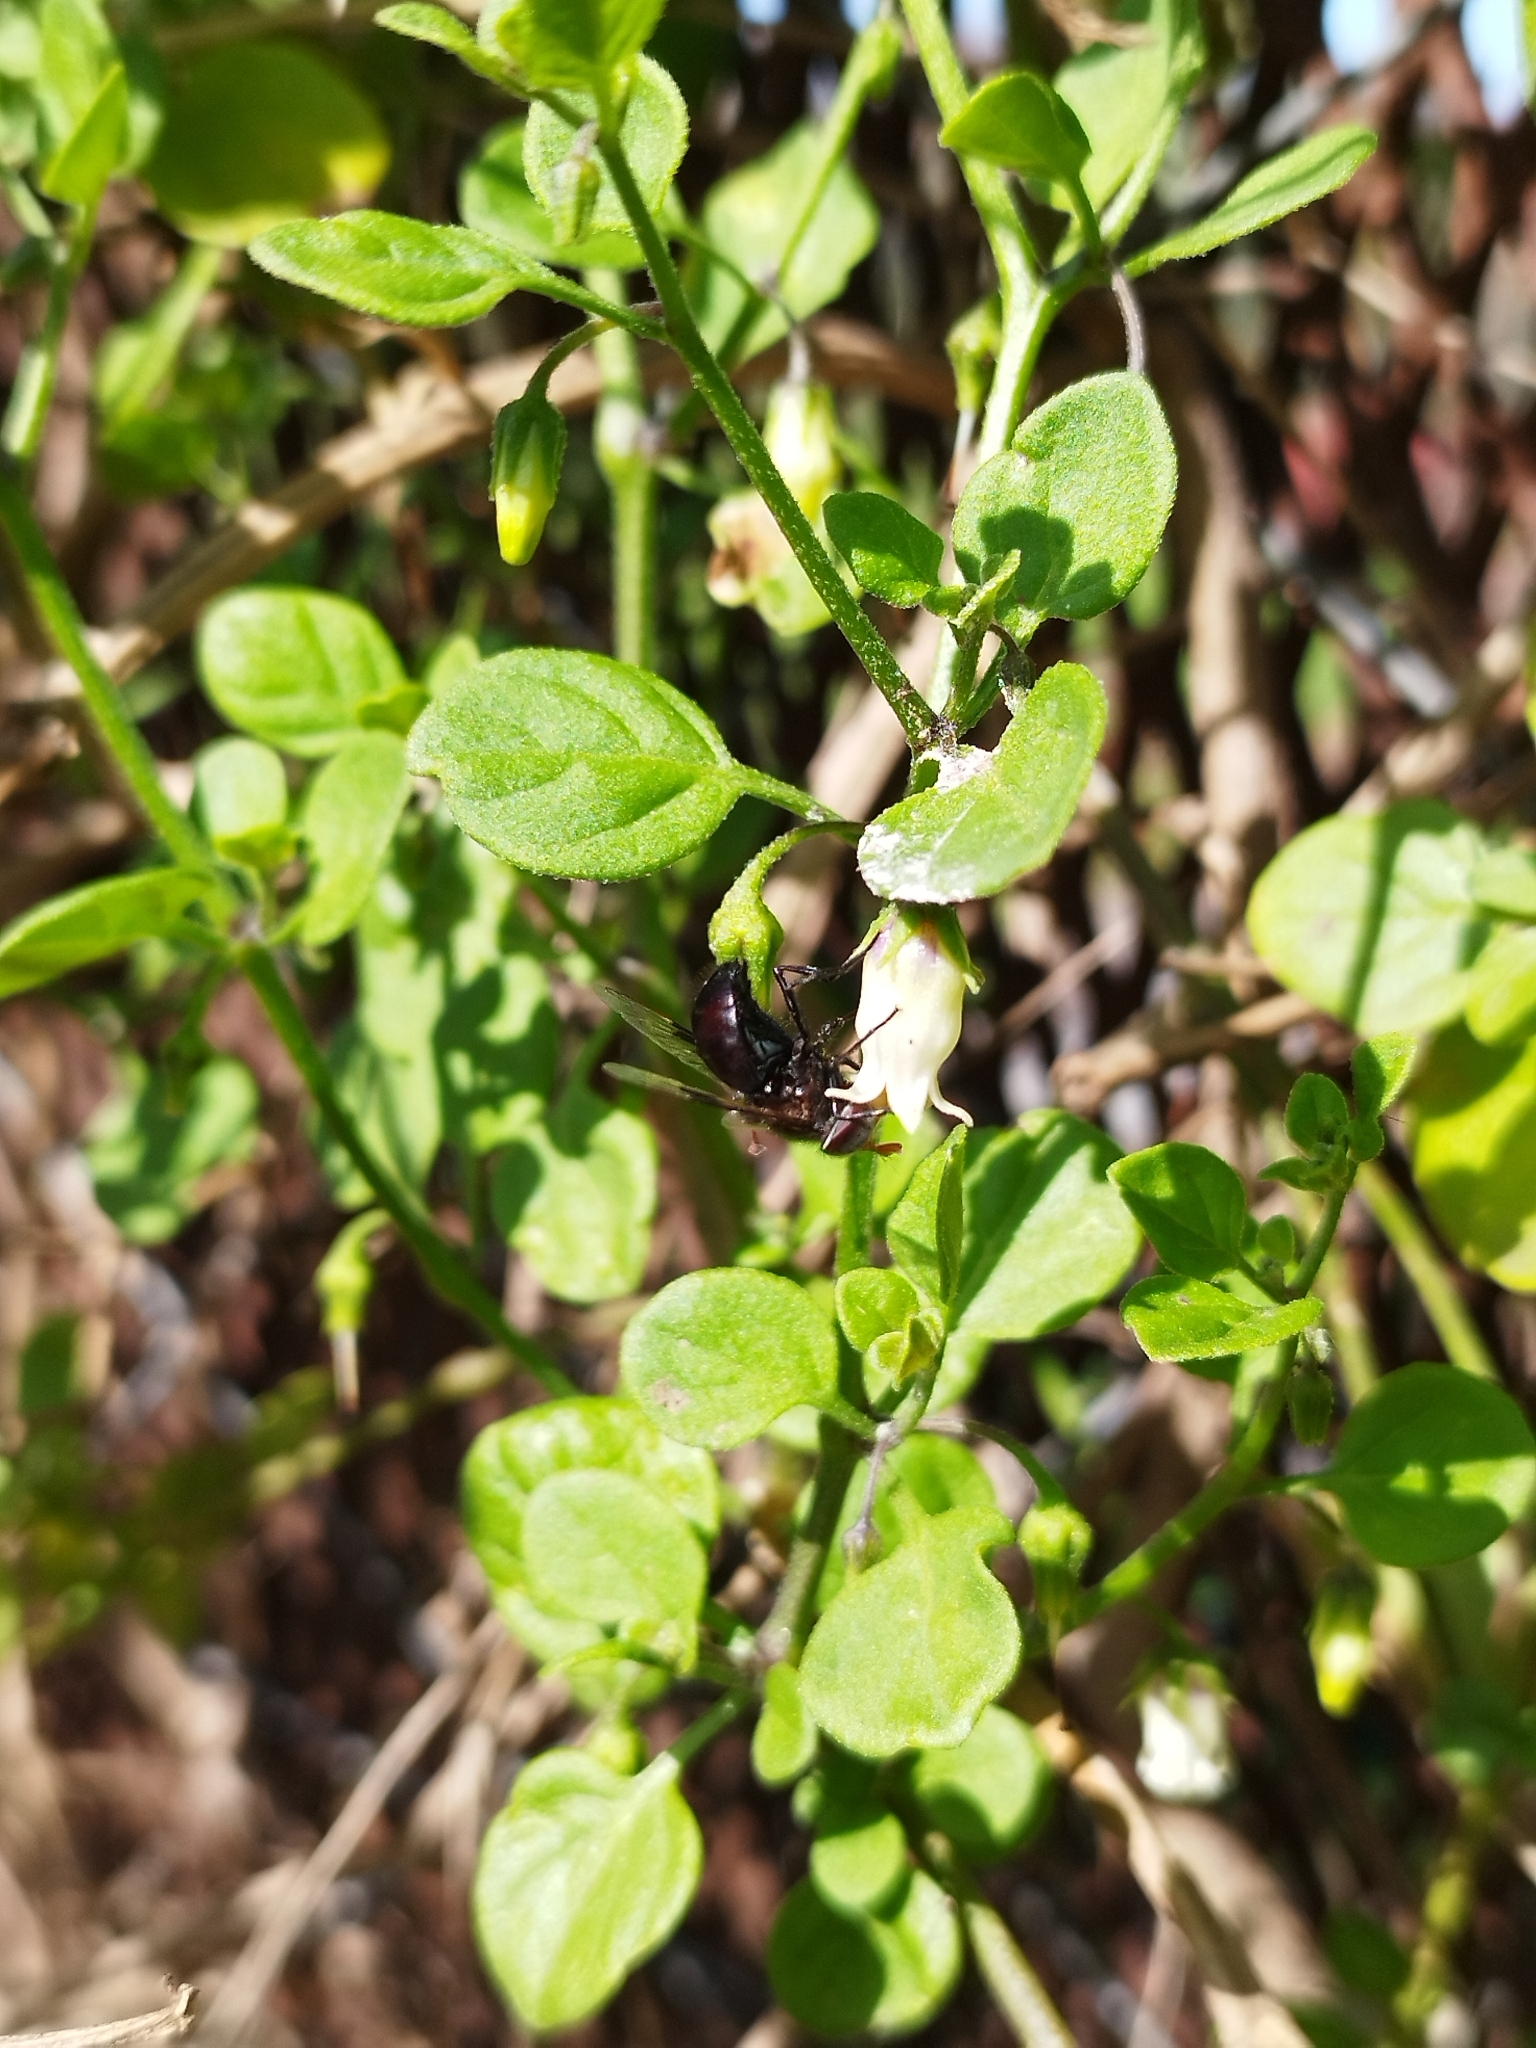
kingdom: Animalia
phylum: Arthropoda
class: Insecta
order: Diptera
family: Syrphidae
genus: Copestylum
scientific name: Copestylum spinigerum
